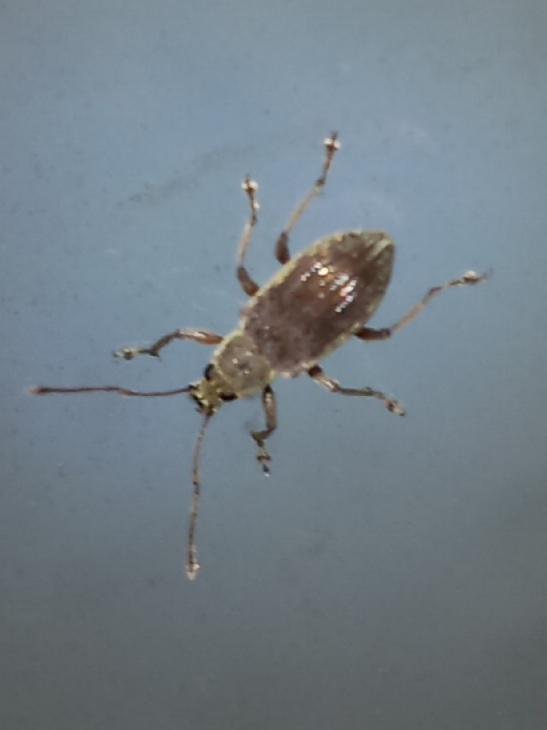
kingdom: Animalia
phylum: Arthropoda
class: Insecta
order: Coleoptera
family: Curculionidae
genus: Cyrtepistomus
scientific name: Cyrtepistomus castaneus
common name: Weevil
